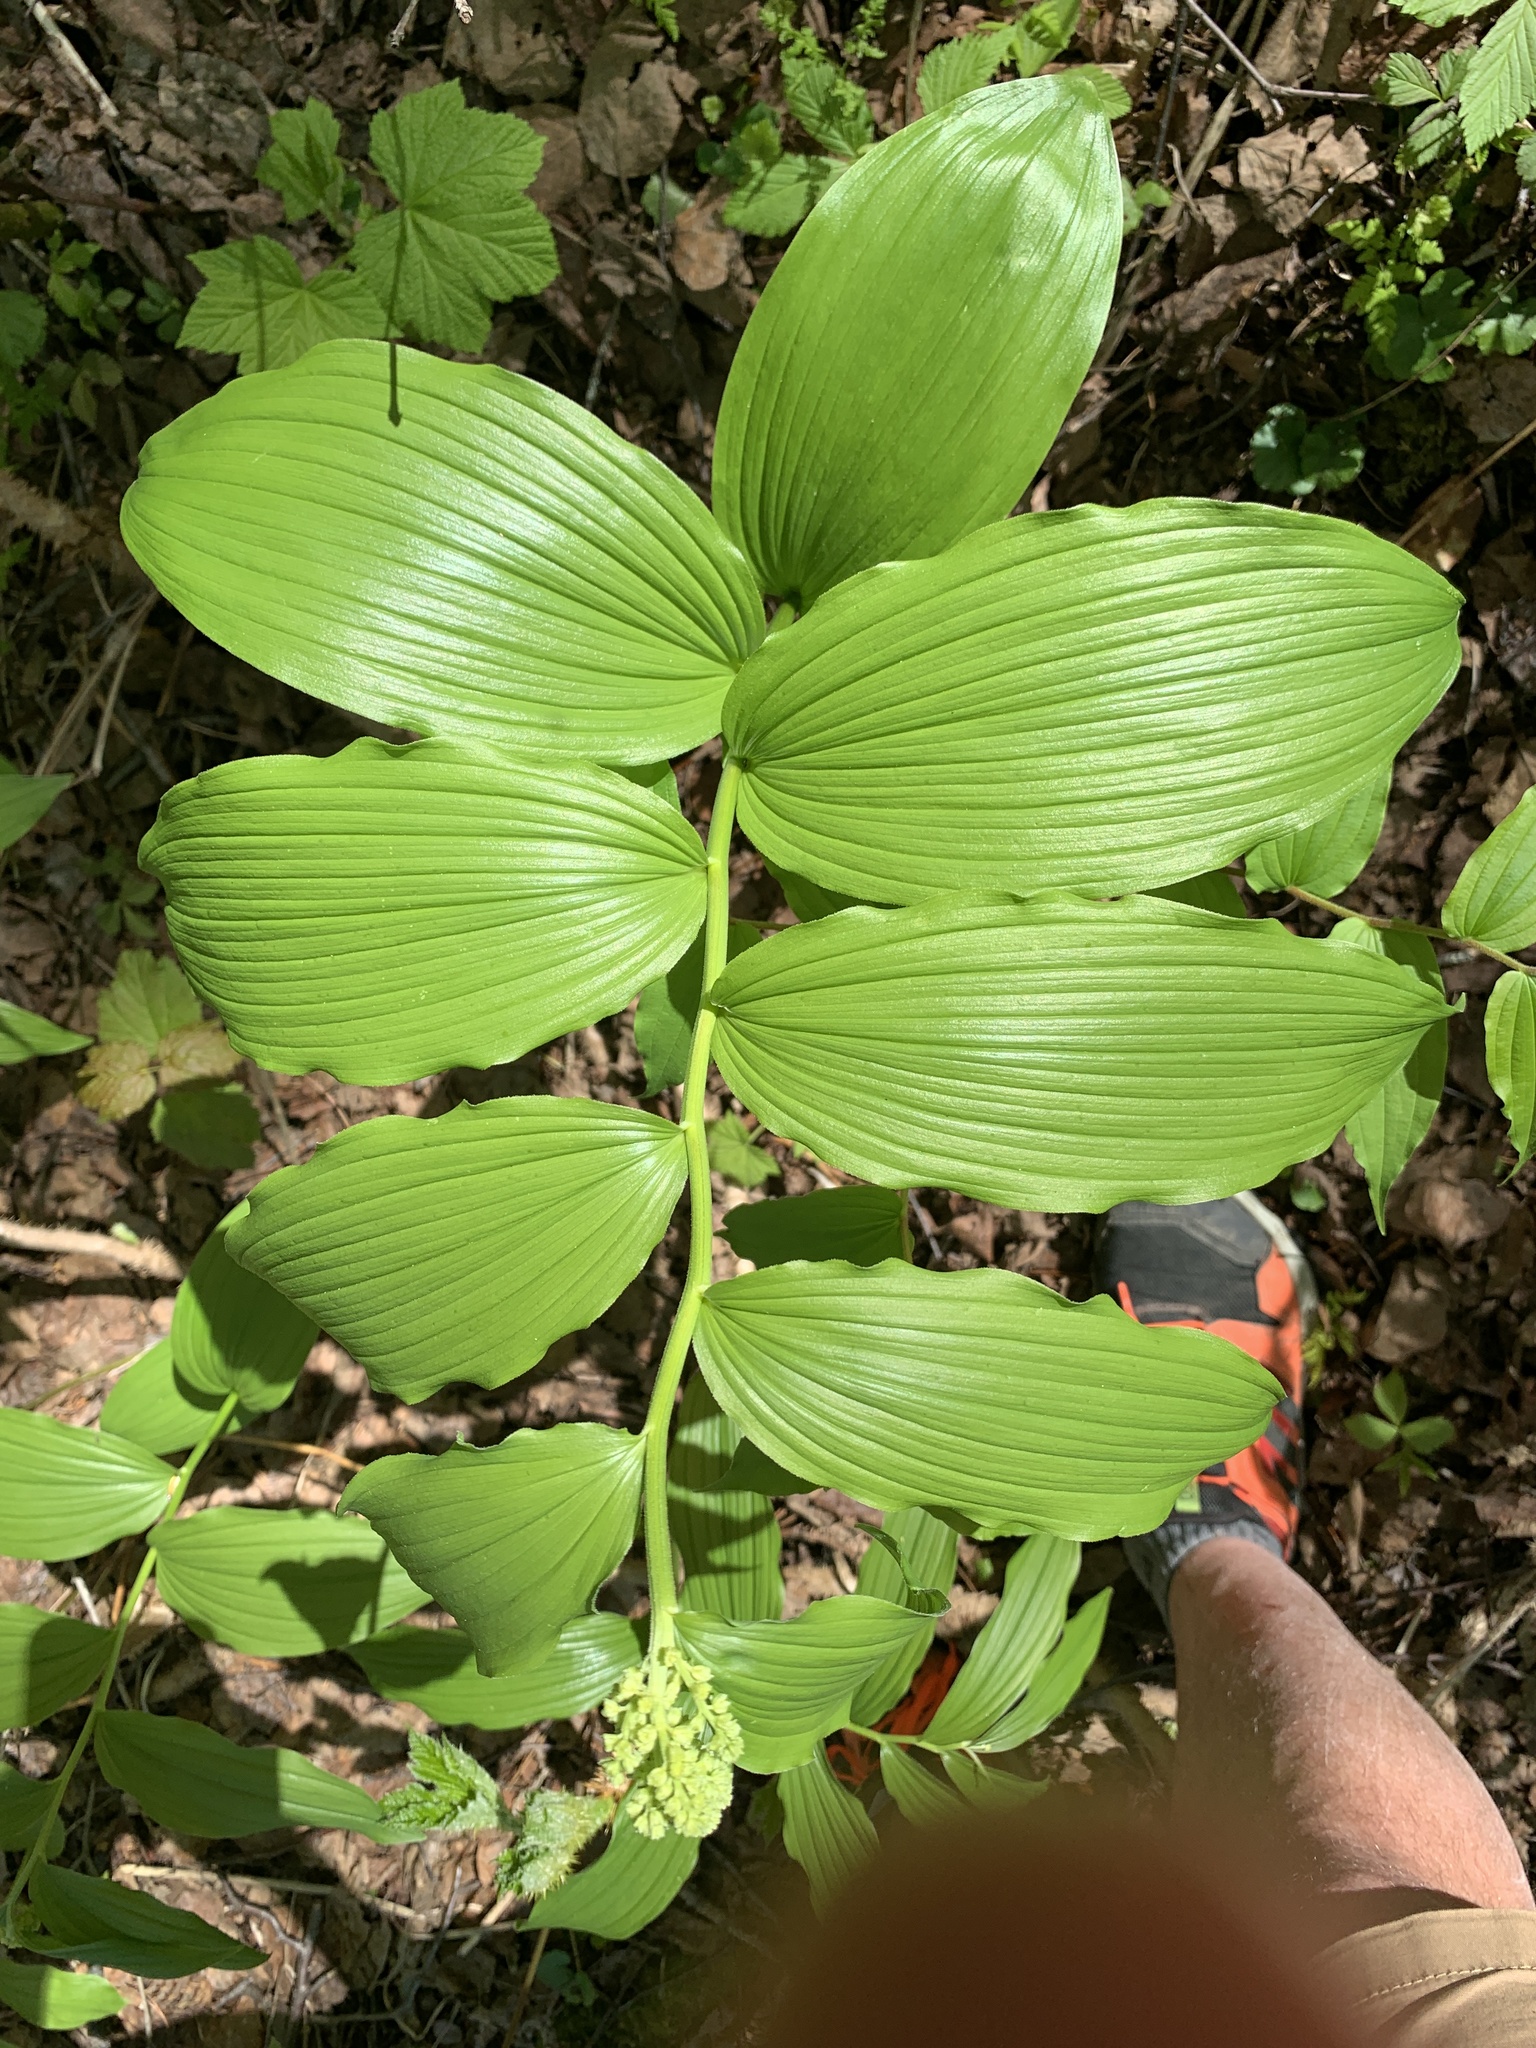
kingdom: Plantae
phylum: Tracheophyta
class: Liliopsida
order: Asparagales
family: Asparagaceae
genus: Maianthemum
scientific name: Maianthemum racemosum
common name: False spikenard
